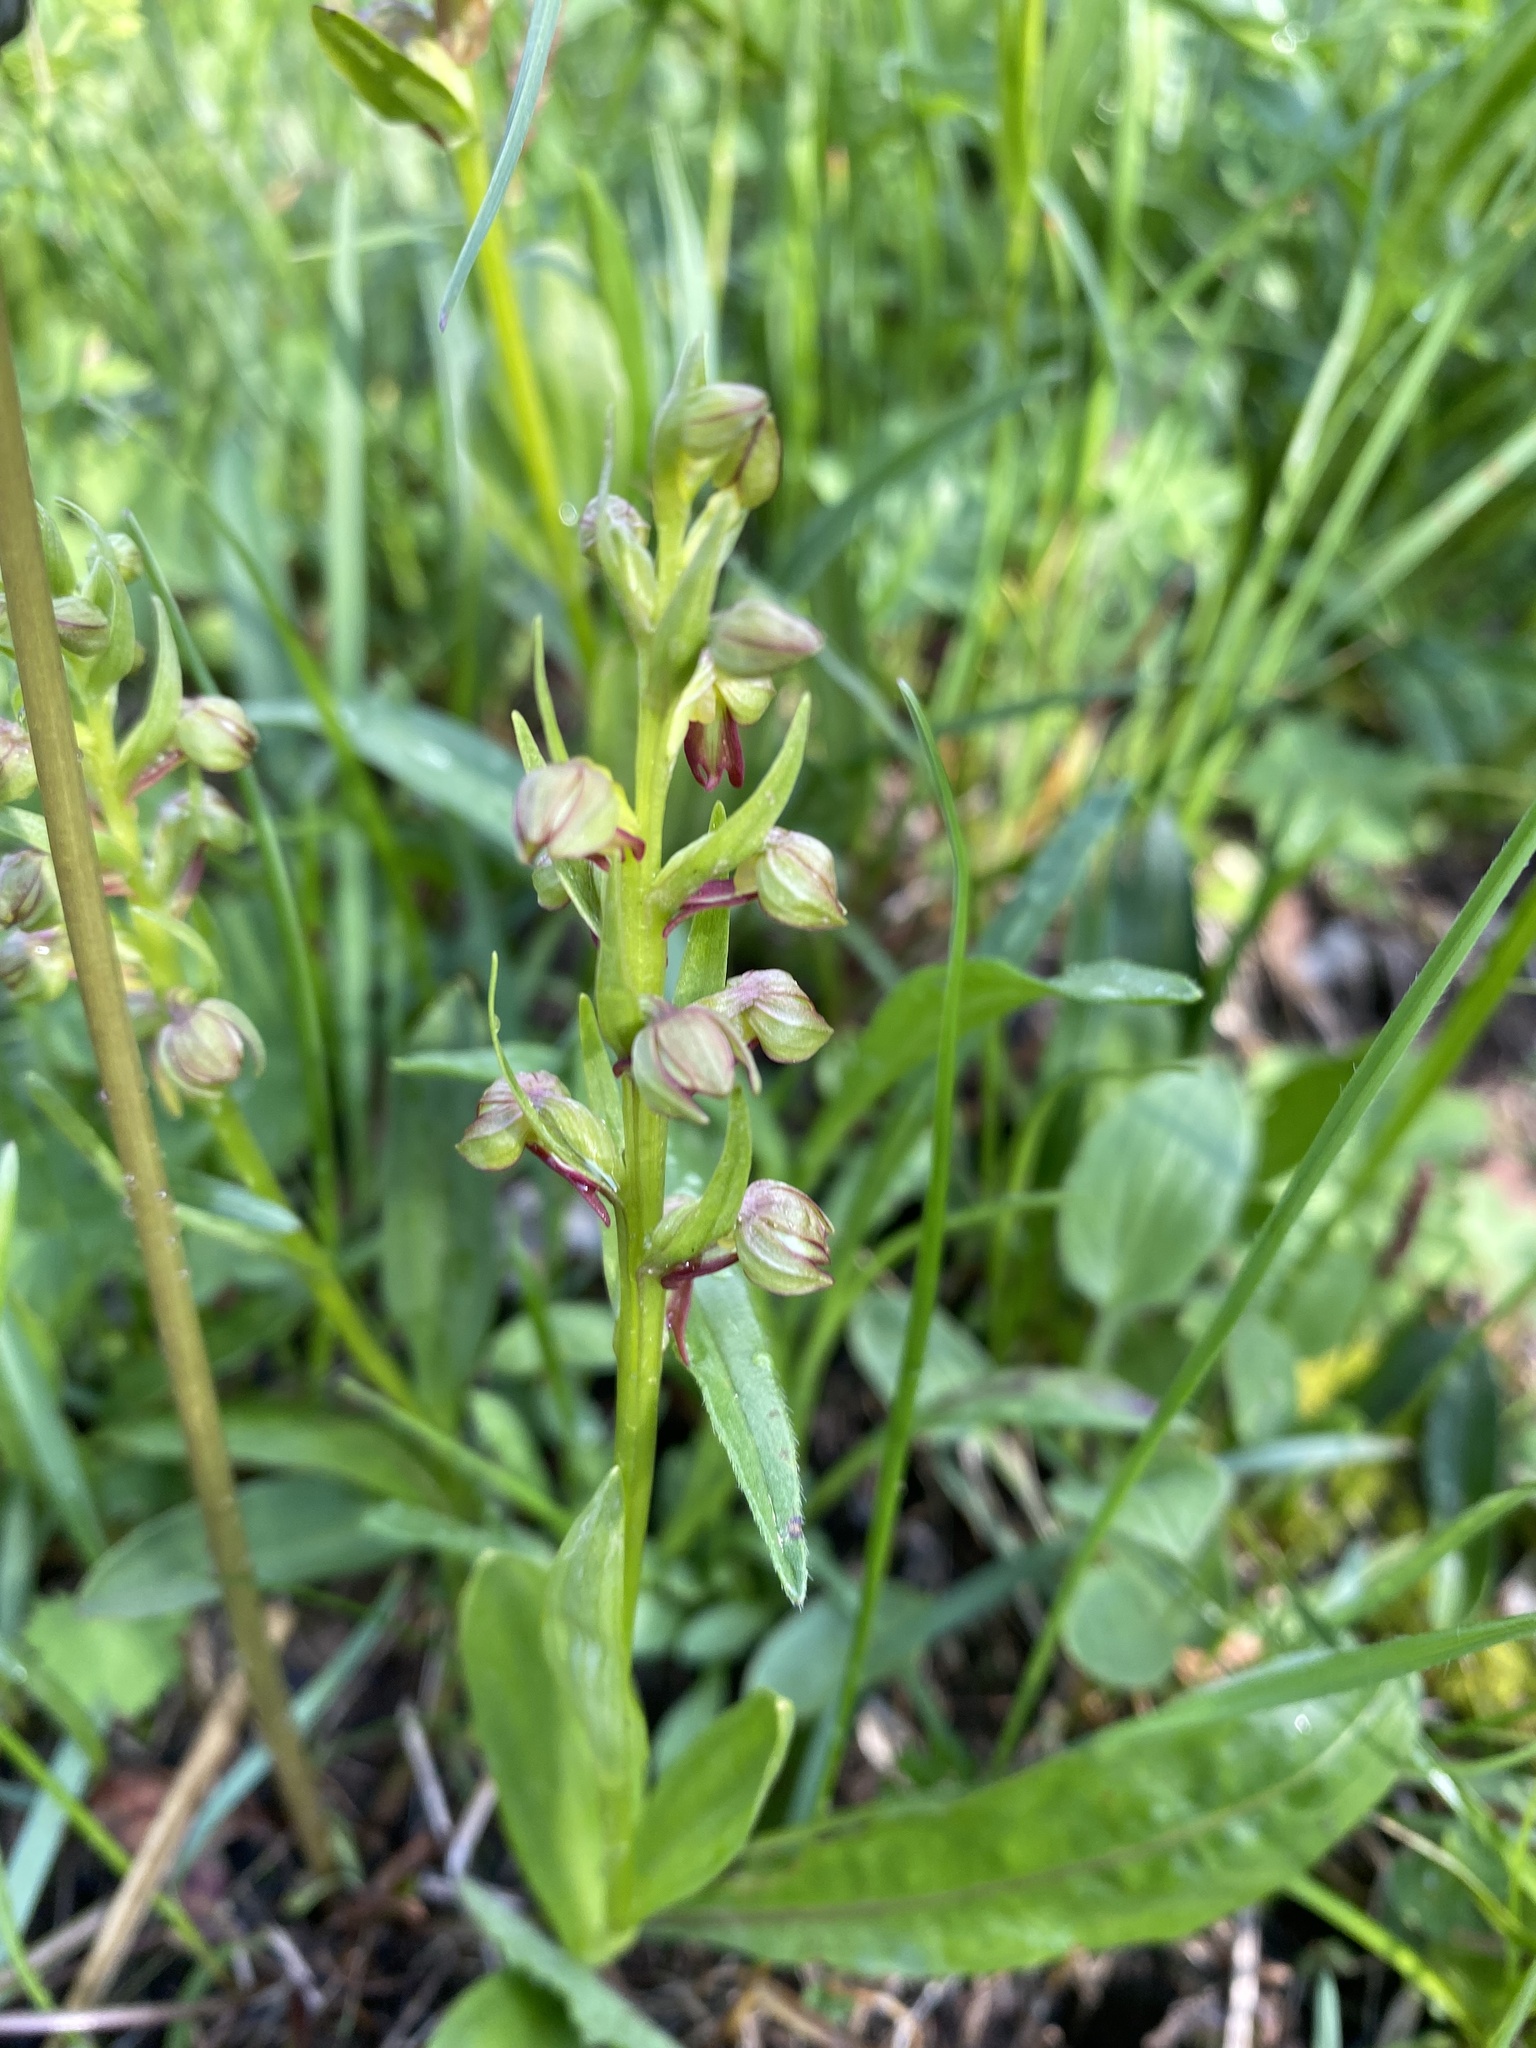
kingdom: Plantae
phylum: Tracheophyta
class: Liliopsida
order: Asparagales
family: Orchidaceae
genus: Dactylorhiza
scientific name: Dactylorhiza viridis
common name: Longbract frog orchid
